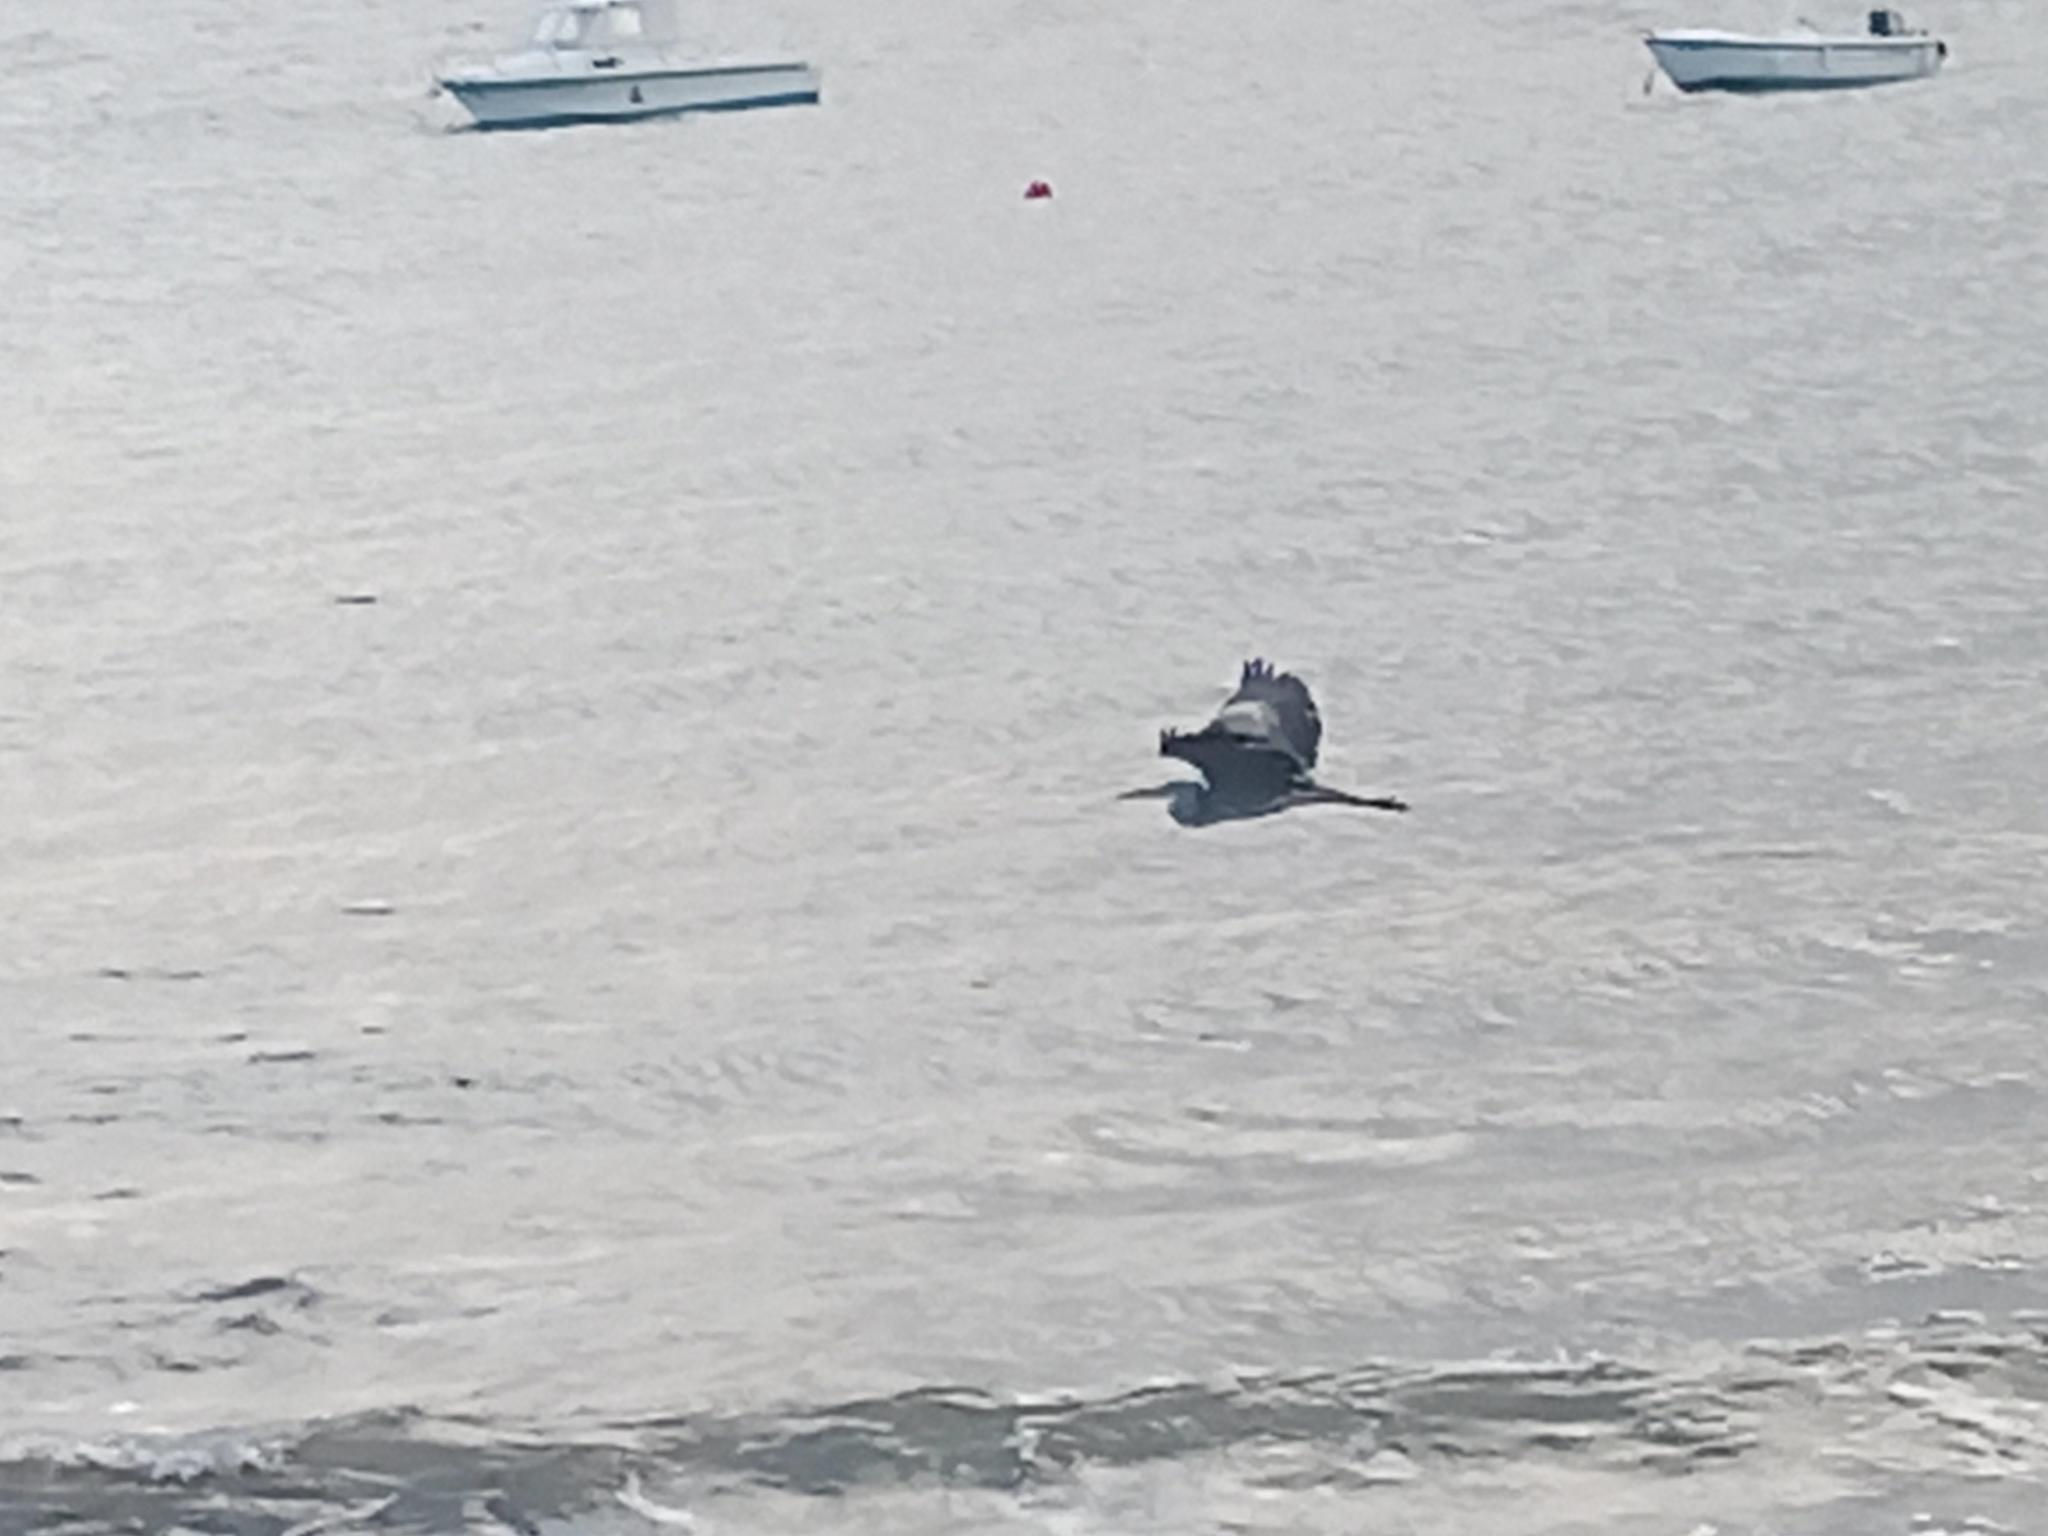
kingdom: Animalia
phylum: Chordata
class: Aves
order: Pelecaniformes
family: Ardeidae
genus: Ardea
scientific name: Ardea cinerea
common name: Grey heron
